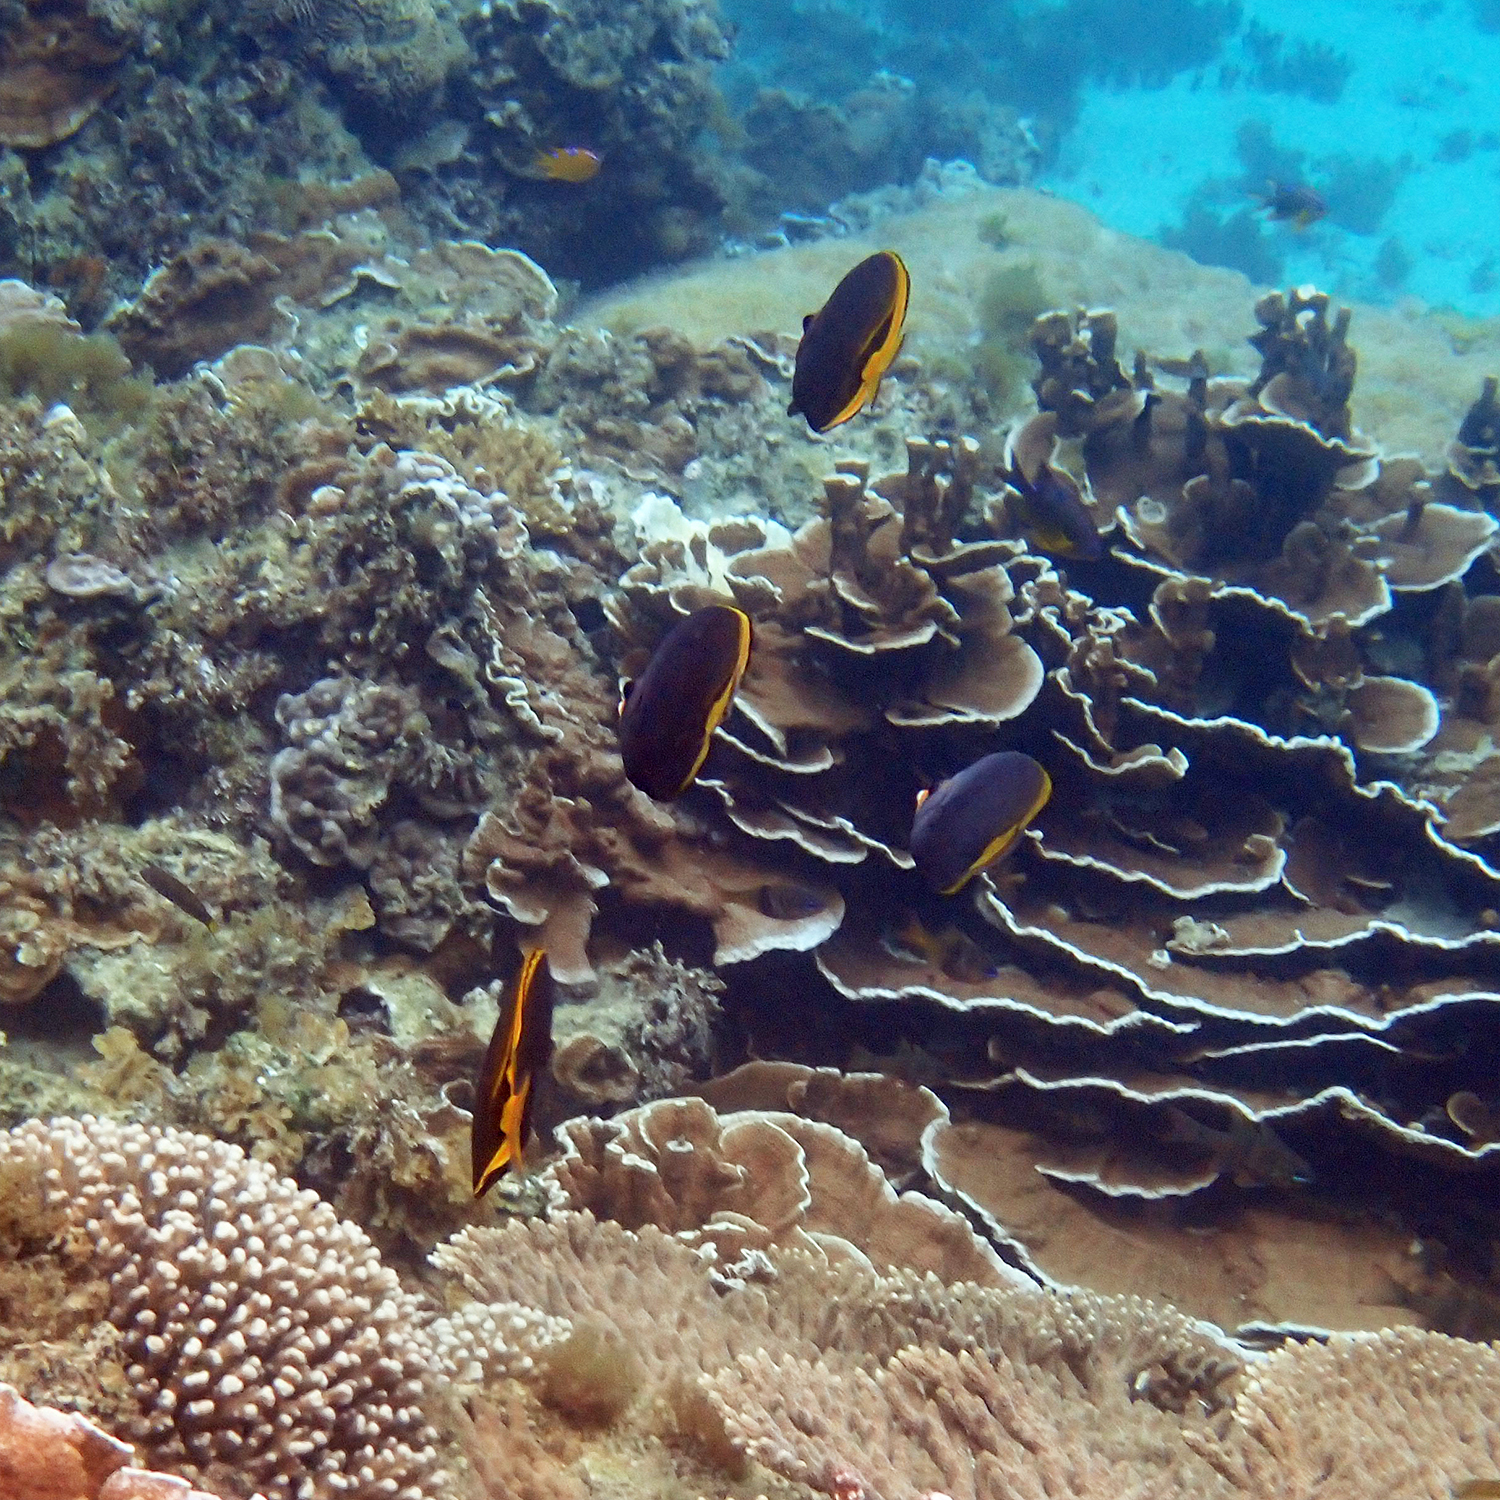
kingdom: Animalia
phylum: Chordata
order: Perciformes
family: Chaetodontidae
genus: Chaetodon
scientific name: Chaetodon flavirostris
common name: Black butterflyfish
